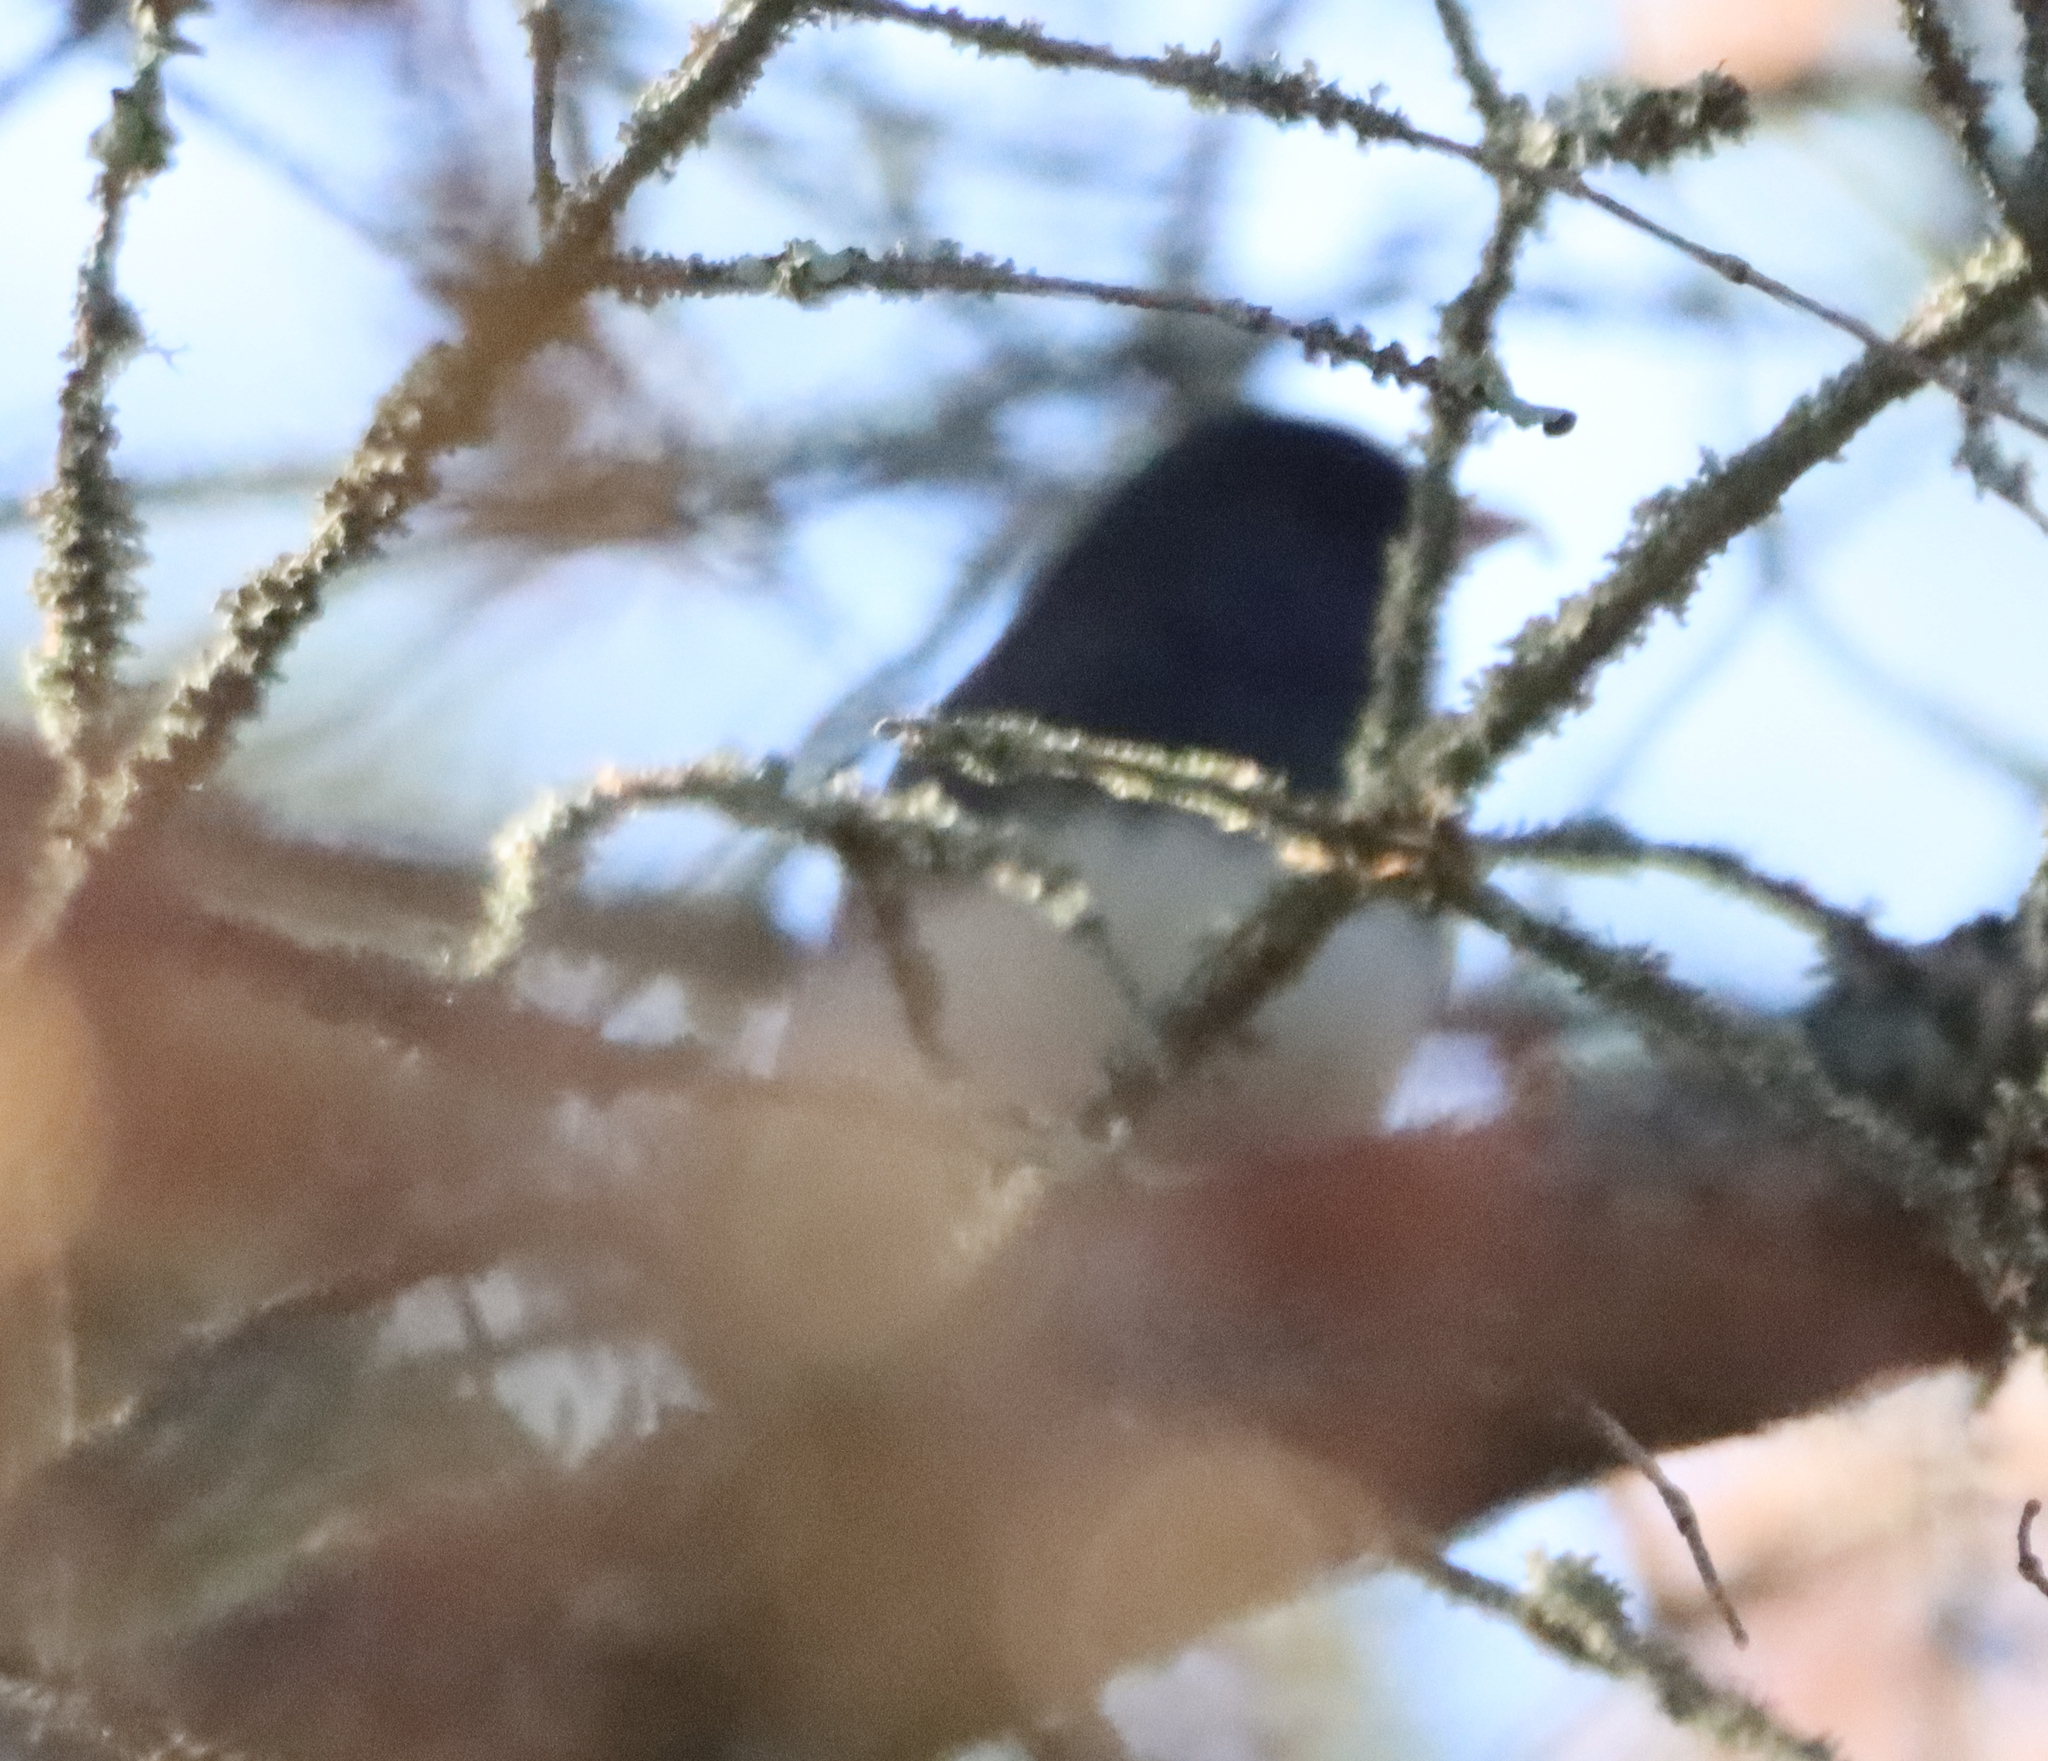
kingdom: Animalia
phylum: Chordata
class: Aves
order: Passeriformes
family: Passerellidae
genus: Junco
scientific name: Junco hyemalis
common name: Dark-eyed junco
